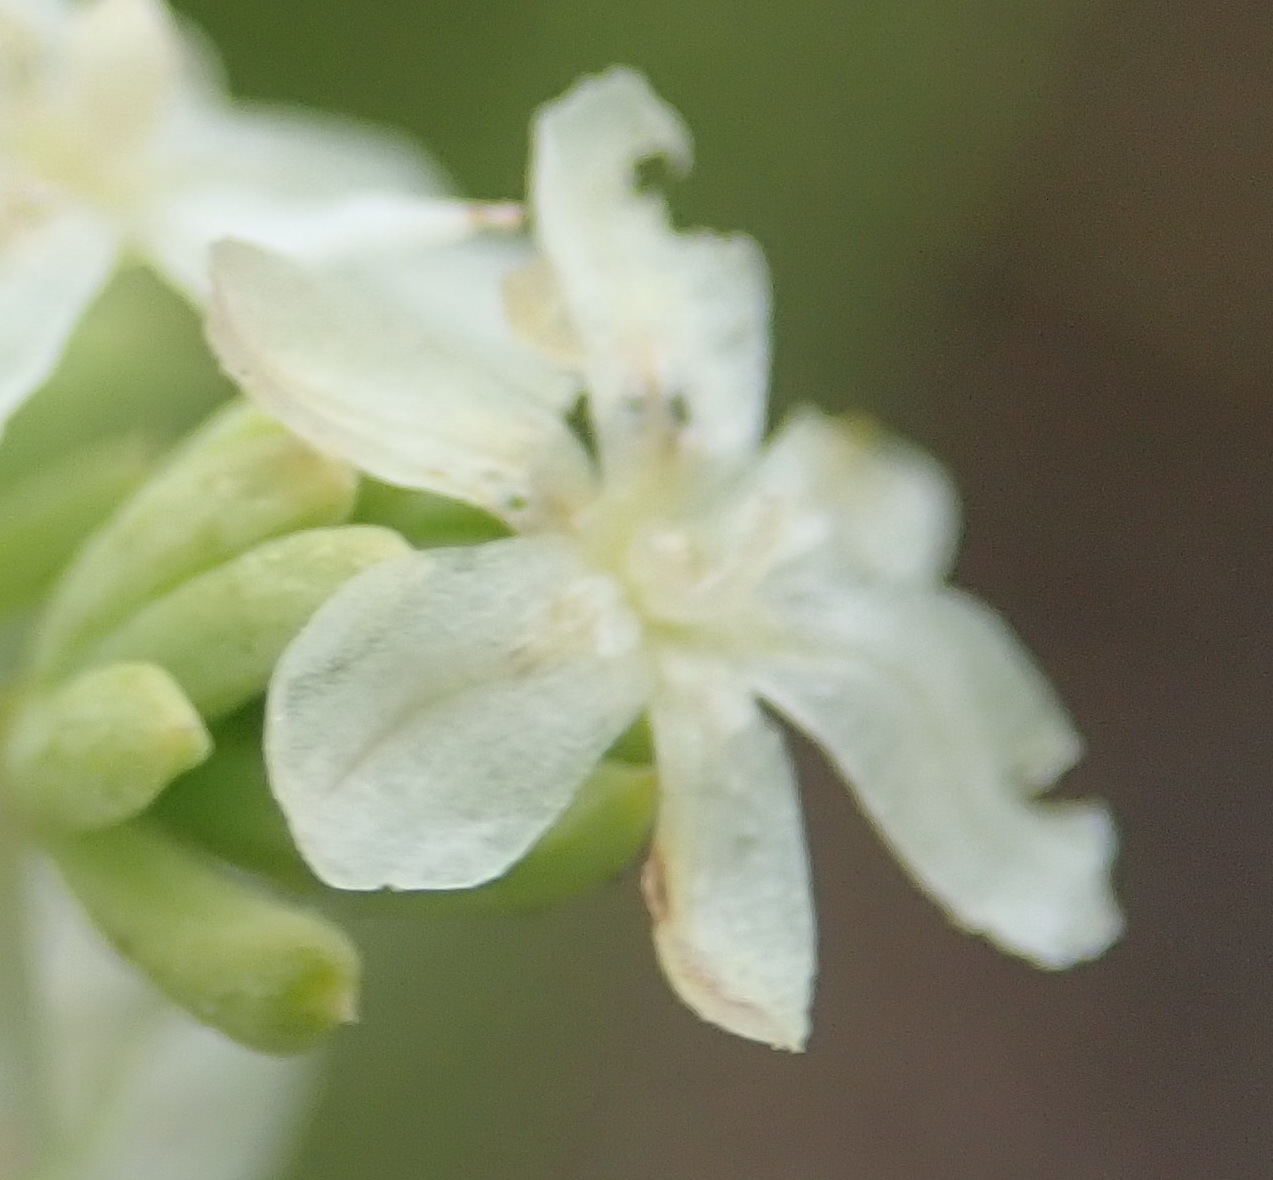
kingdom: Plantae
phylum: Tracheophyta
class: Liliopsida
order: Asparagales
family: Asparagaceae
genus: Asparagus
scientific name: Asparagus rubicundus
